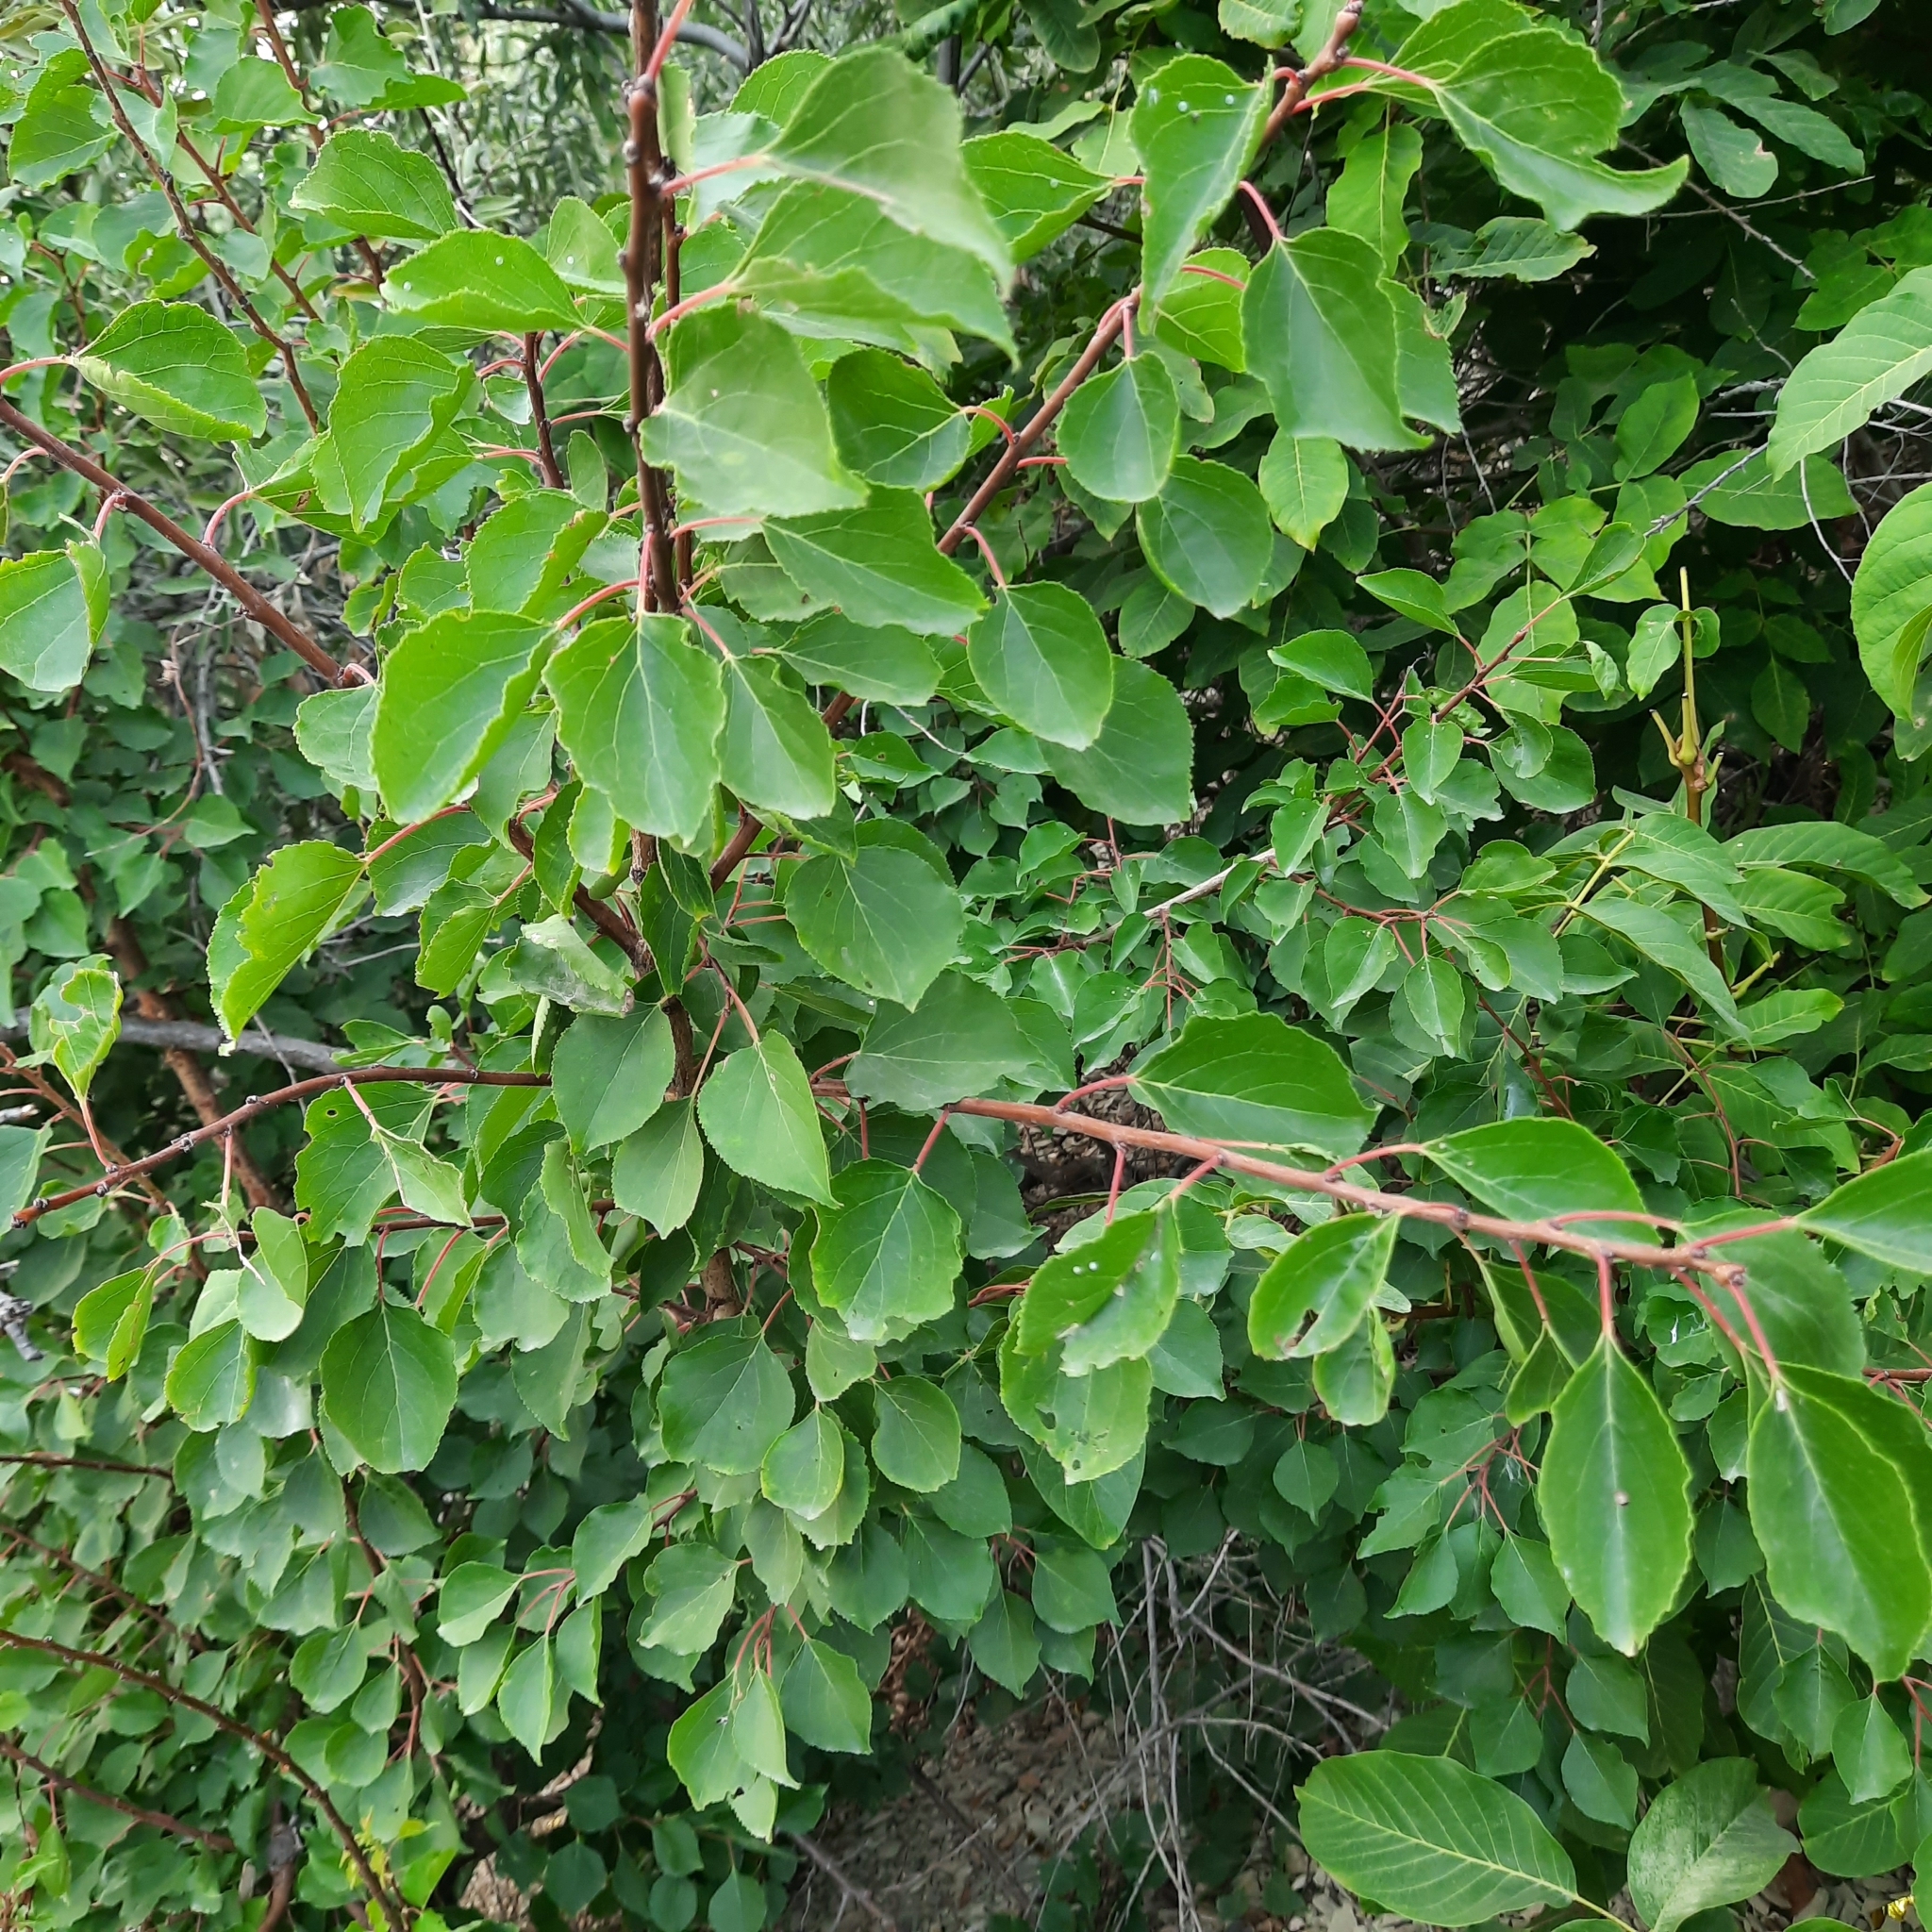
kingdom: Plantae
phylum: Tracheophyta
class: Magnoliopsida
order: Rosales
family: Rosaceae
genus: Prunus
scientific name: Prunus armeniaca
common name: Apricot
